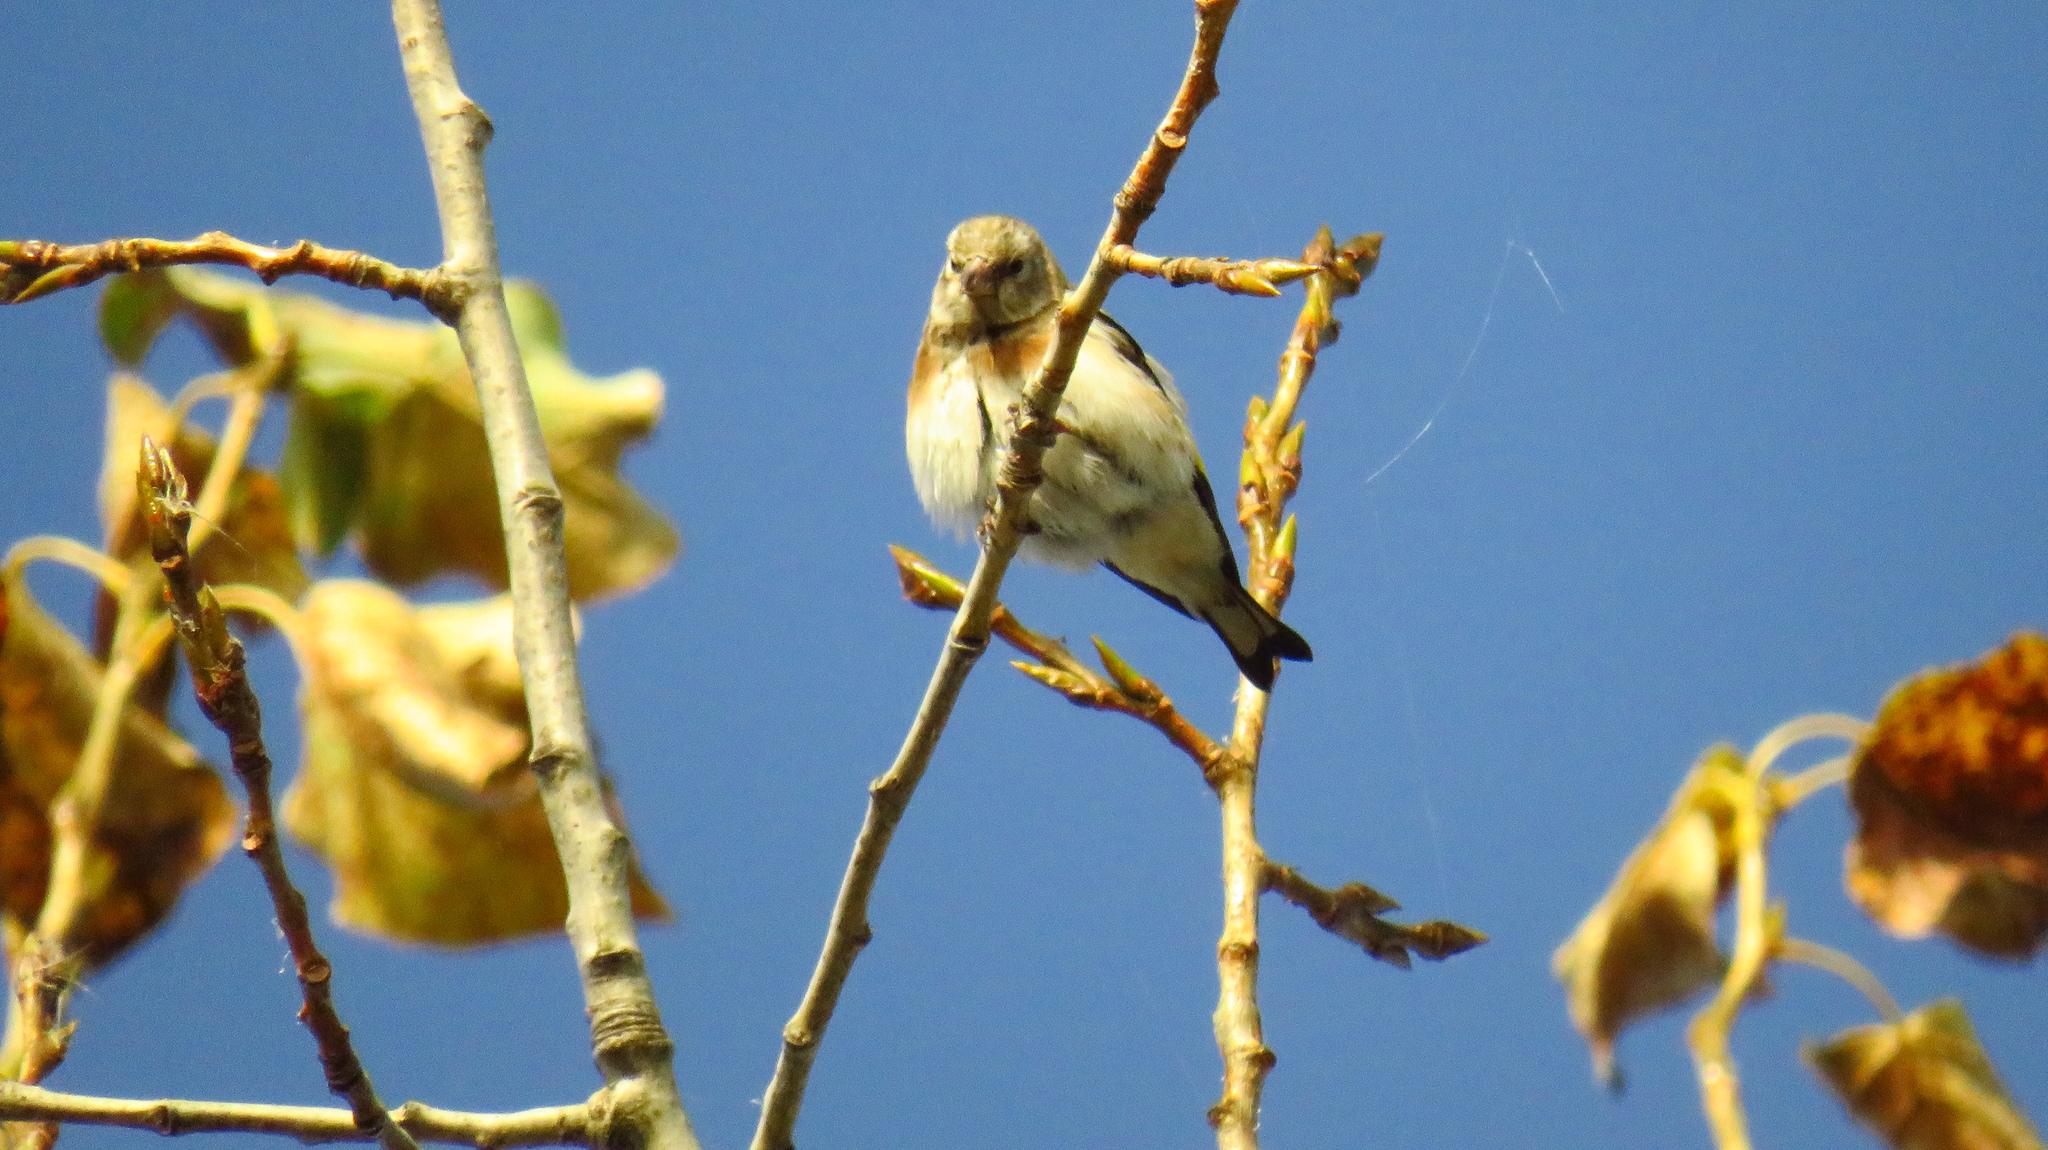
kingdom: Animalia
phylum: Chordata
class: Aves
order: Passeriformes
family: Fringillidae
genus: Fringilla
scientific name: Fringilla montifringilla
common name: Brambling
